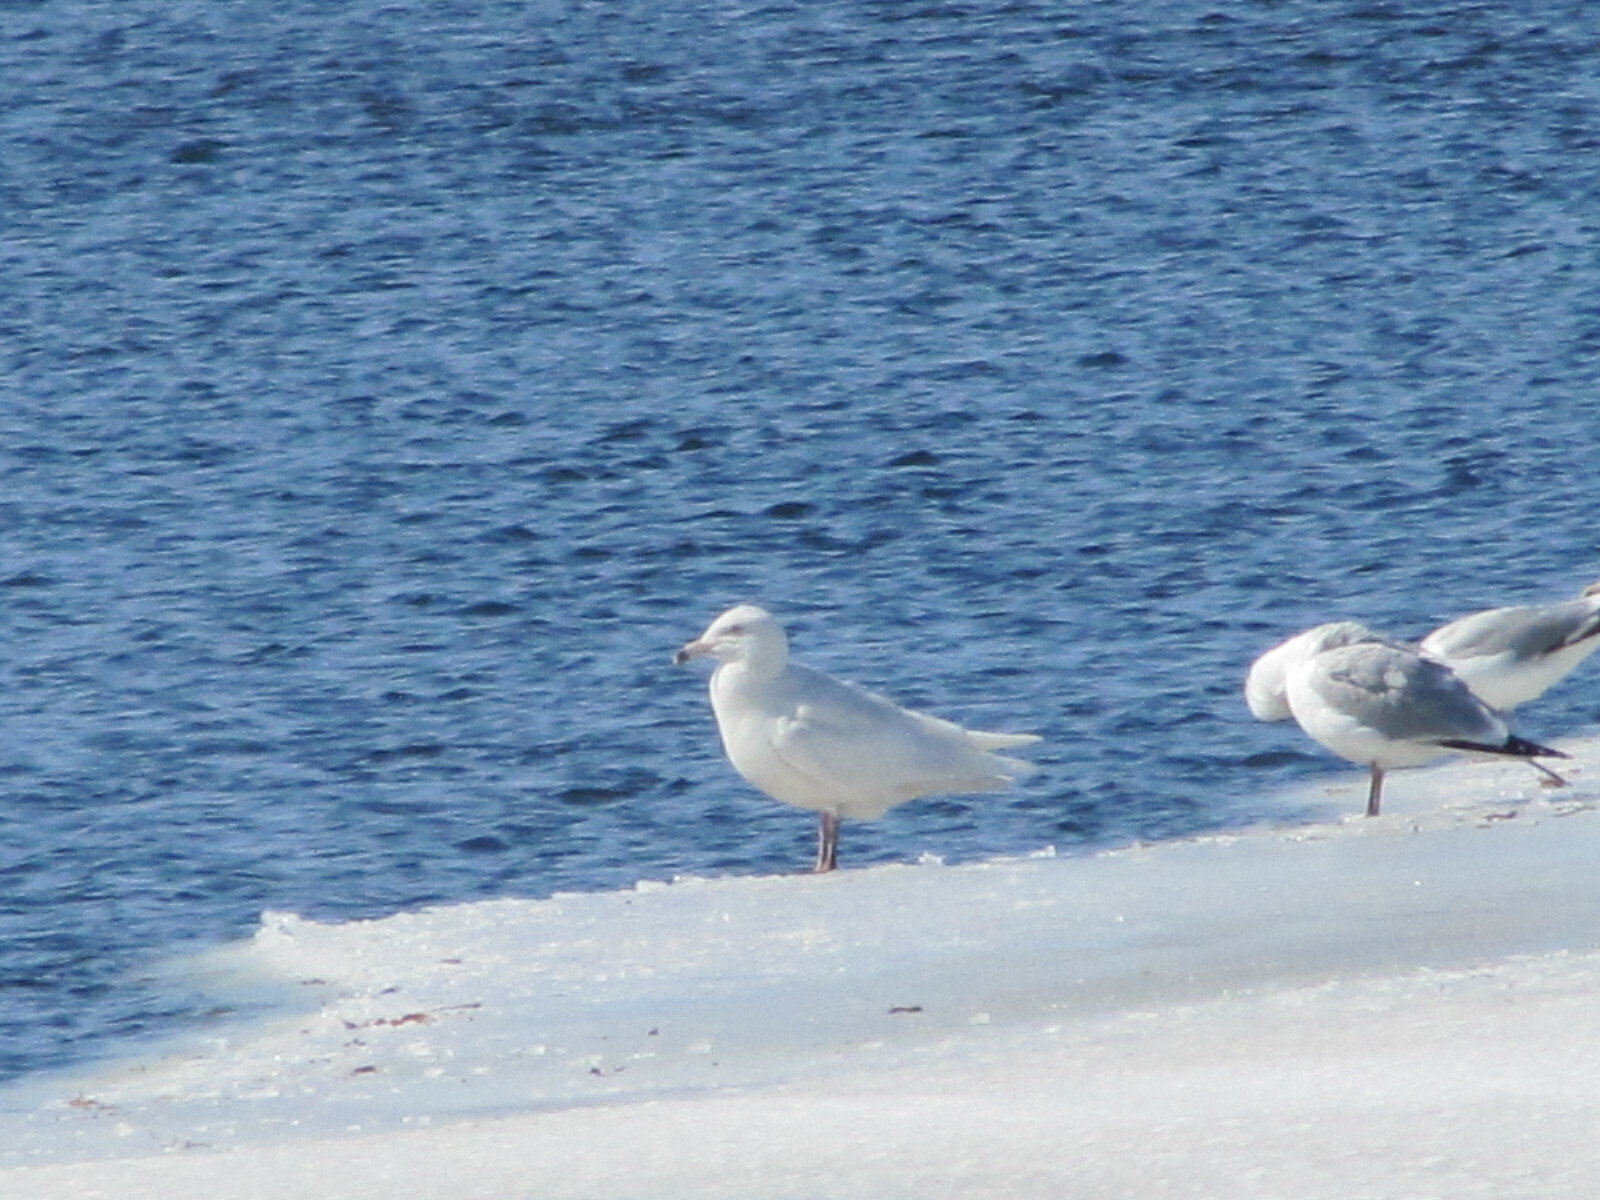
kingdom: Animalia
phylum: Chordata
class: Aves
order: Charadriiformes
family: Laridae
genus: Larus
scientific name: Larus hyperboreus
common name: Glaucous gull
